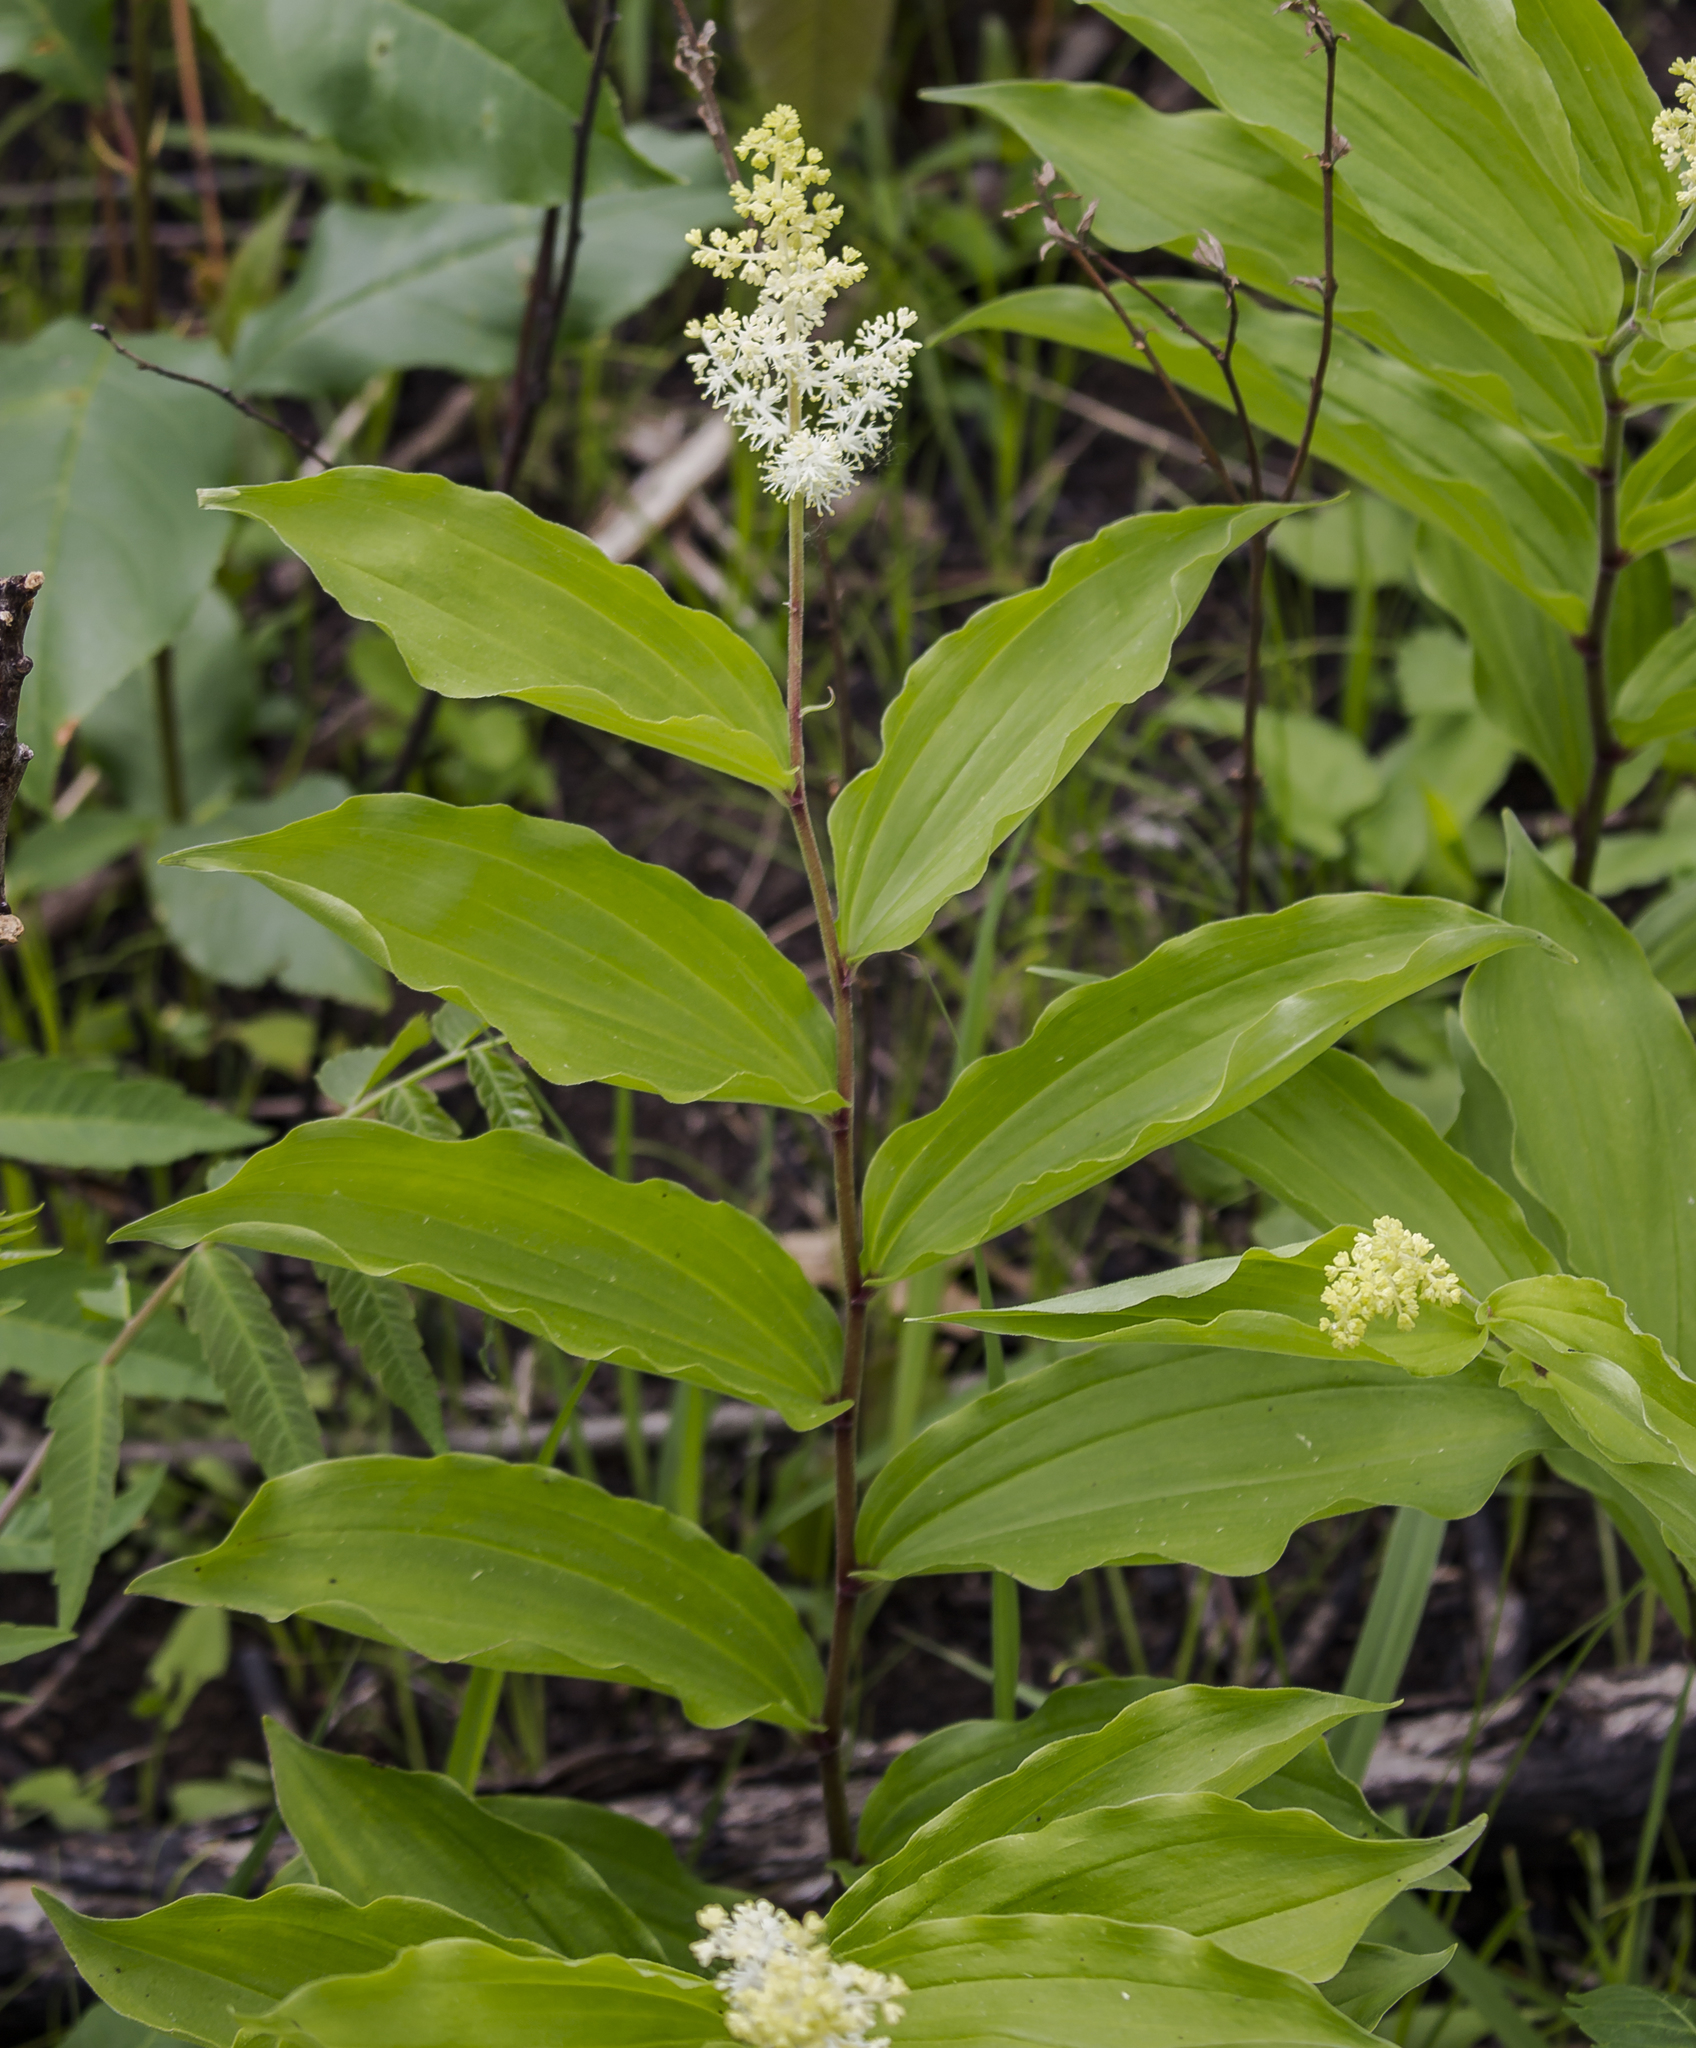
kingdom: Plantae
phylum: Tracheophyta
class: Liliopsida
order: Asparagales
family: Asparagaceae
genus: Maianthemum
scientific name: Maianthemum racemosum
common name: False spikenard
